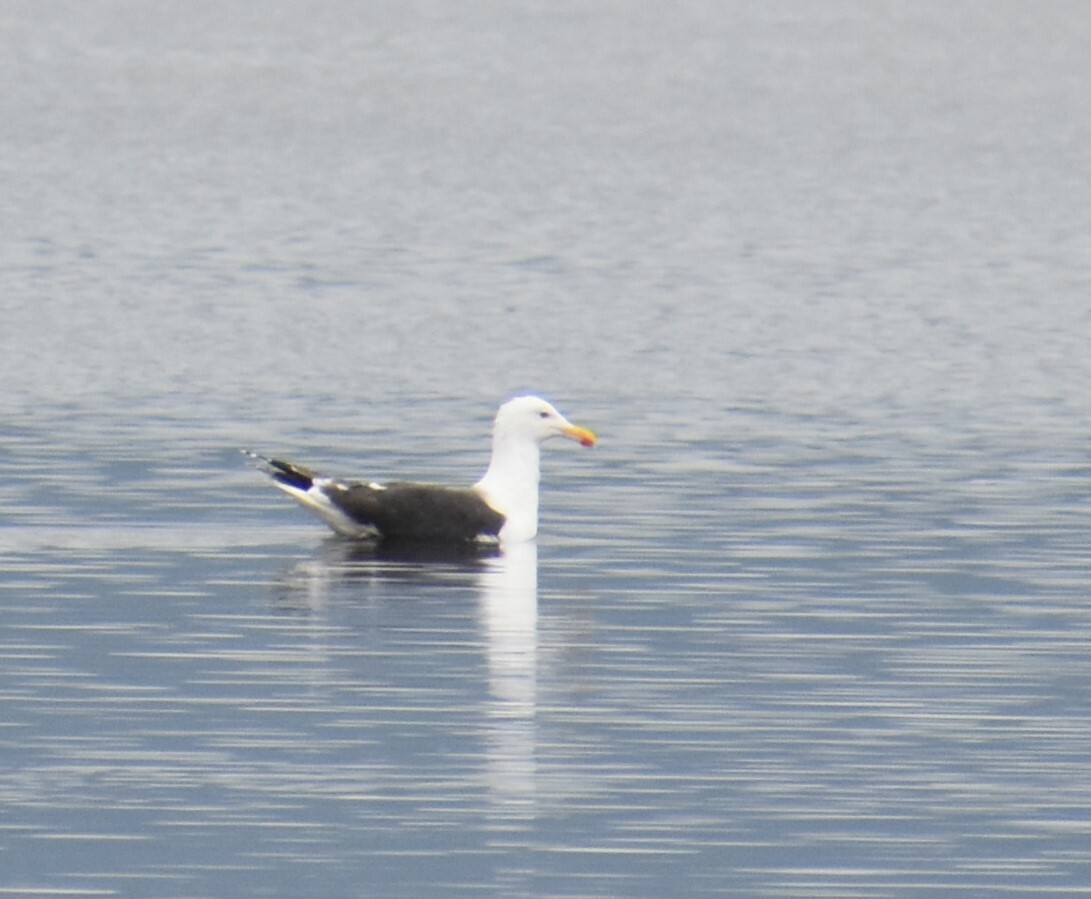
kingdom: Animalia
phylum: Chordata
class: Aves
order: Charadriiformes
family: Laridae
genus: Larus
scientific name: Larus marinus
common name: Great black-backed gull
